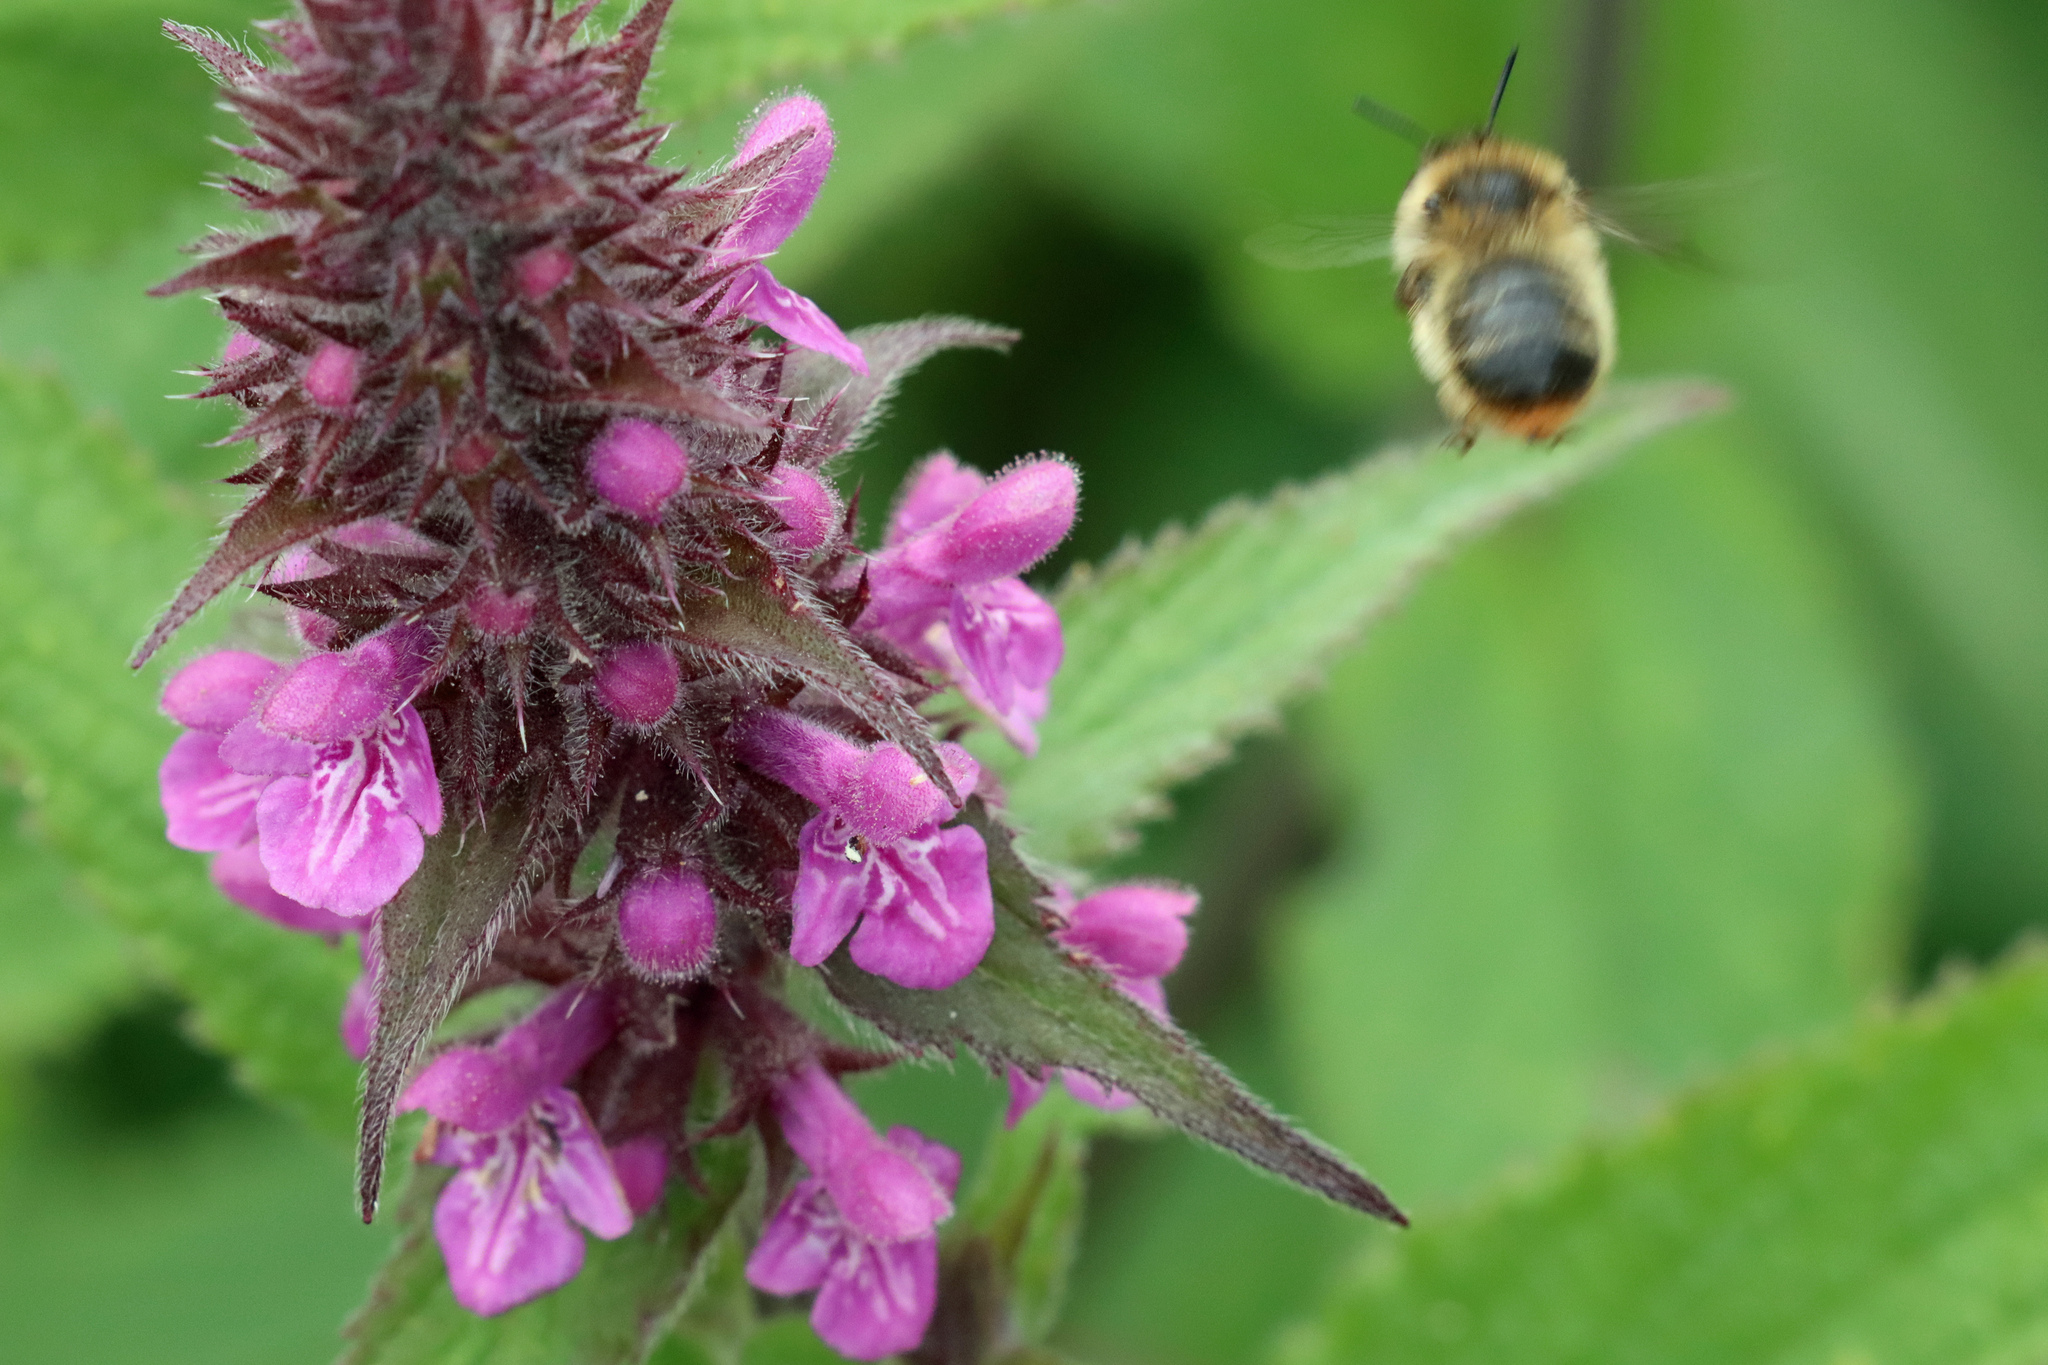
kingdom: Animalia
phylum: Arthropoda
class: Insecta
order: Hymenoptera
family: Apidae
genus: Anthophora
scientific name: Anthophora furcata
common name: Fork-tailed flower bee
